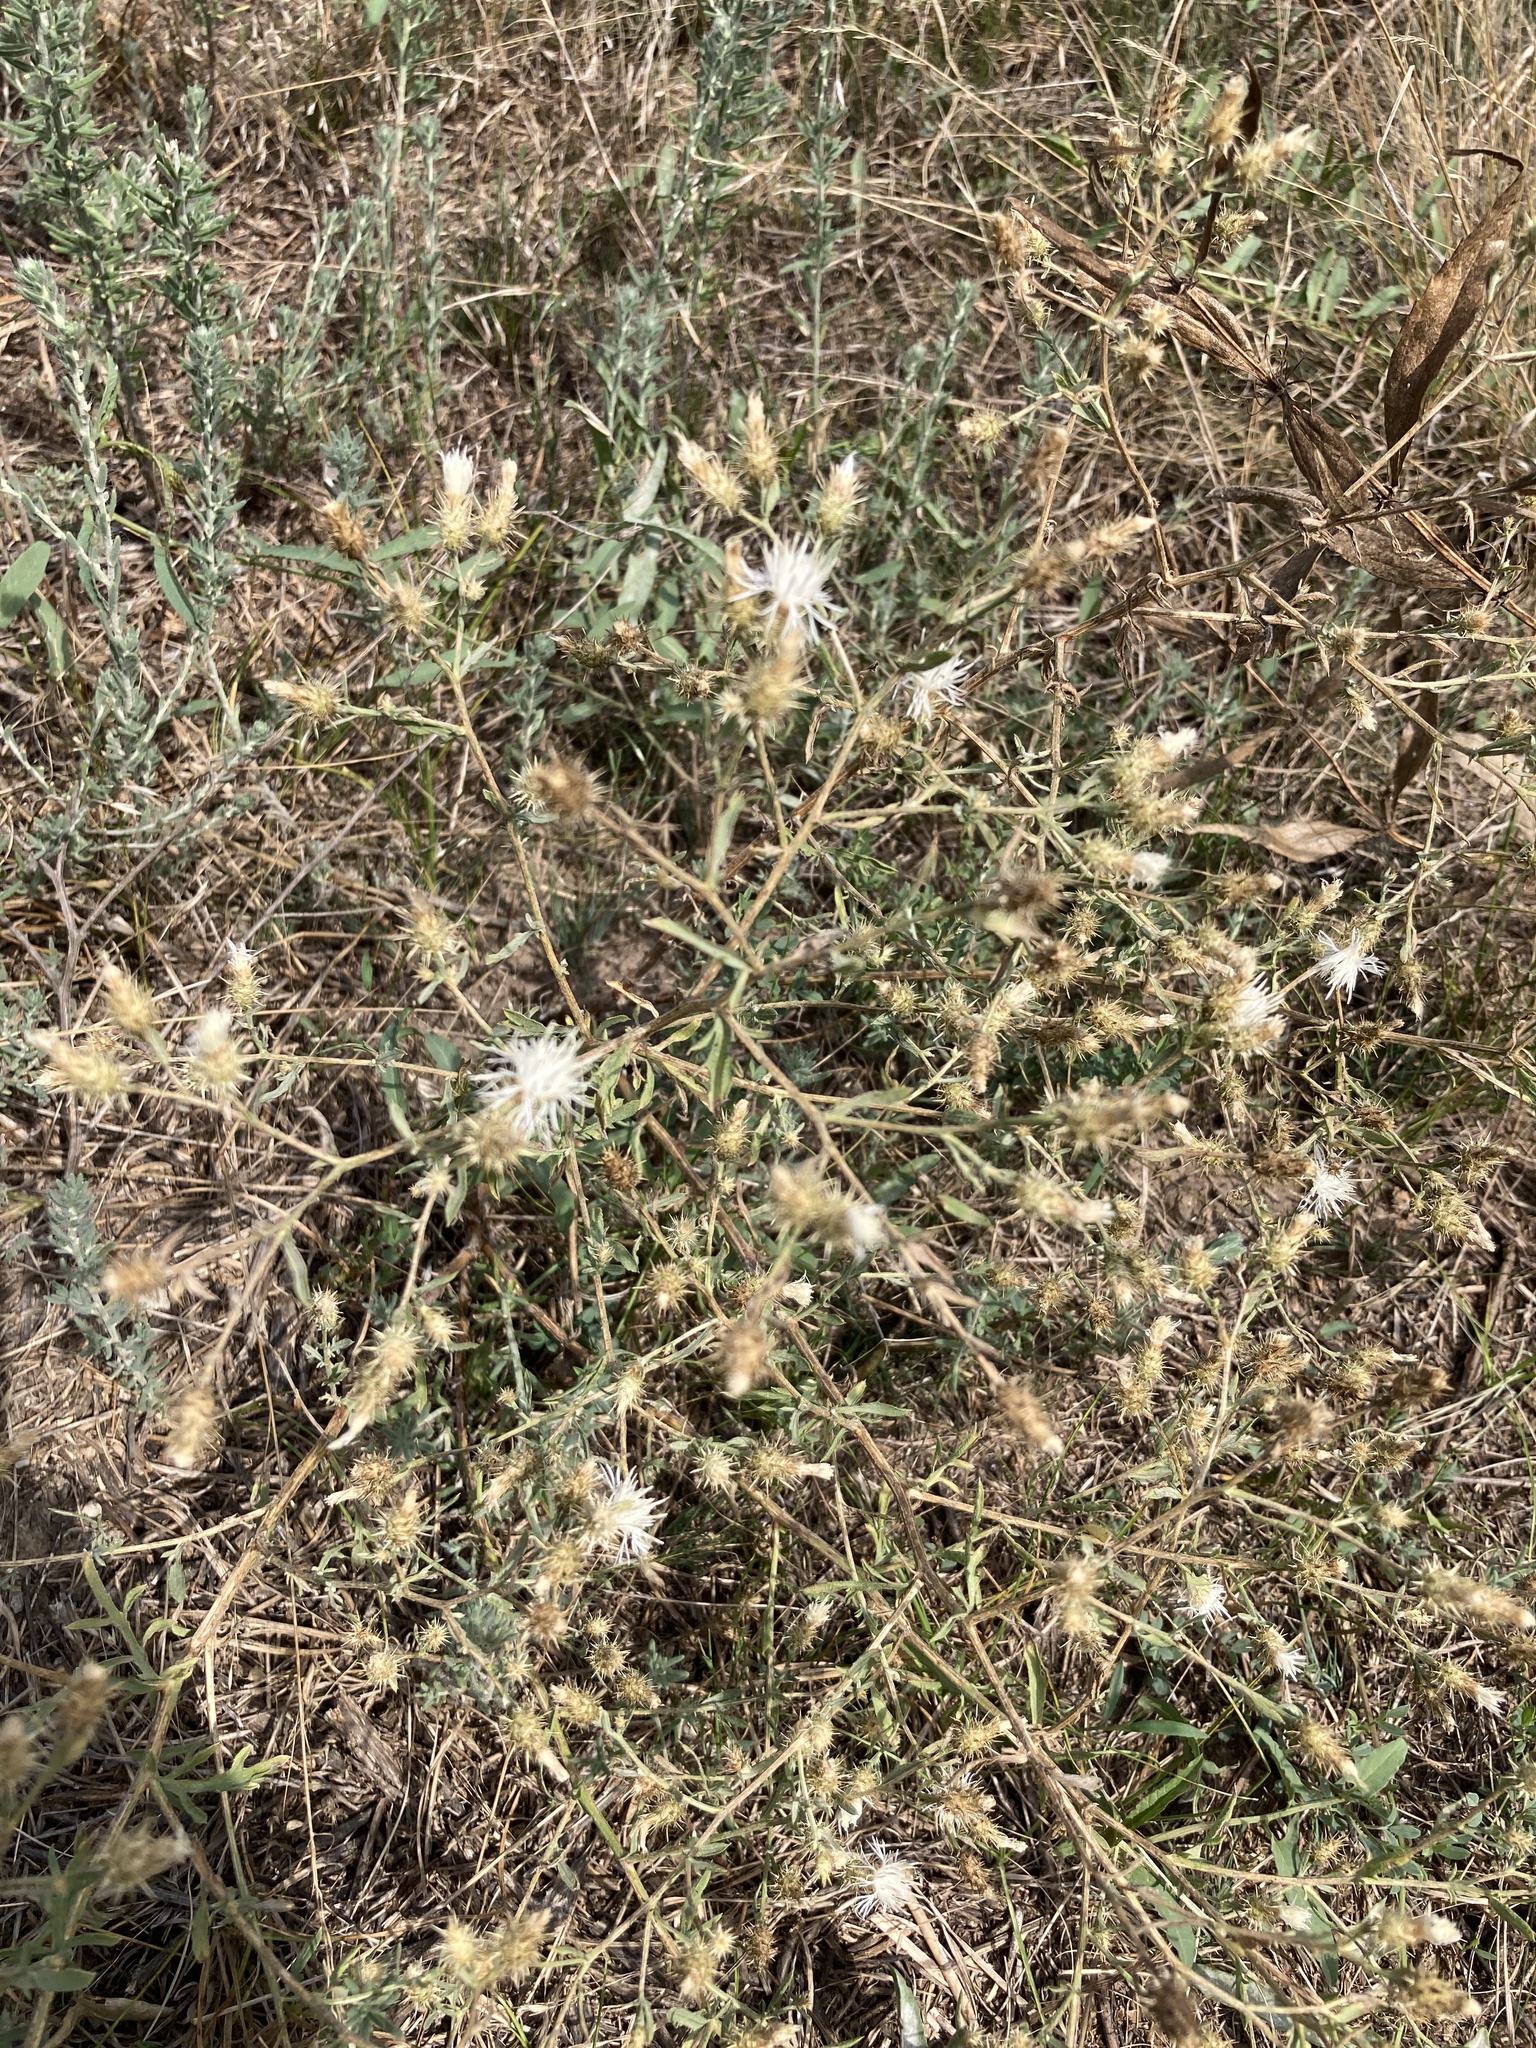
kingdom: Plantae
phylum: Tracheophyta
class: Magnoliopsida
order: Asterales
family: Asteraceae
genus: Centaurea
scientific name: Centaurea diffusa
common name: Diffuse knapweed
